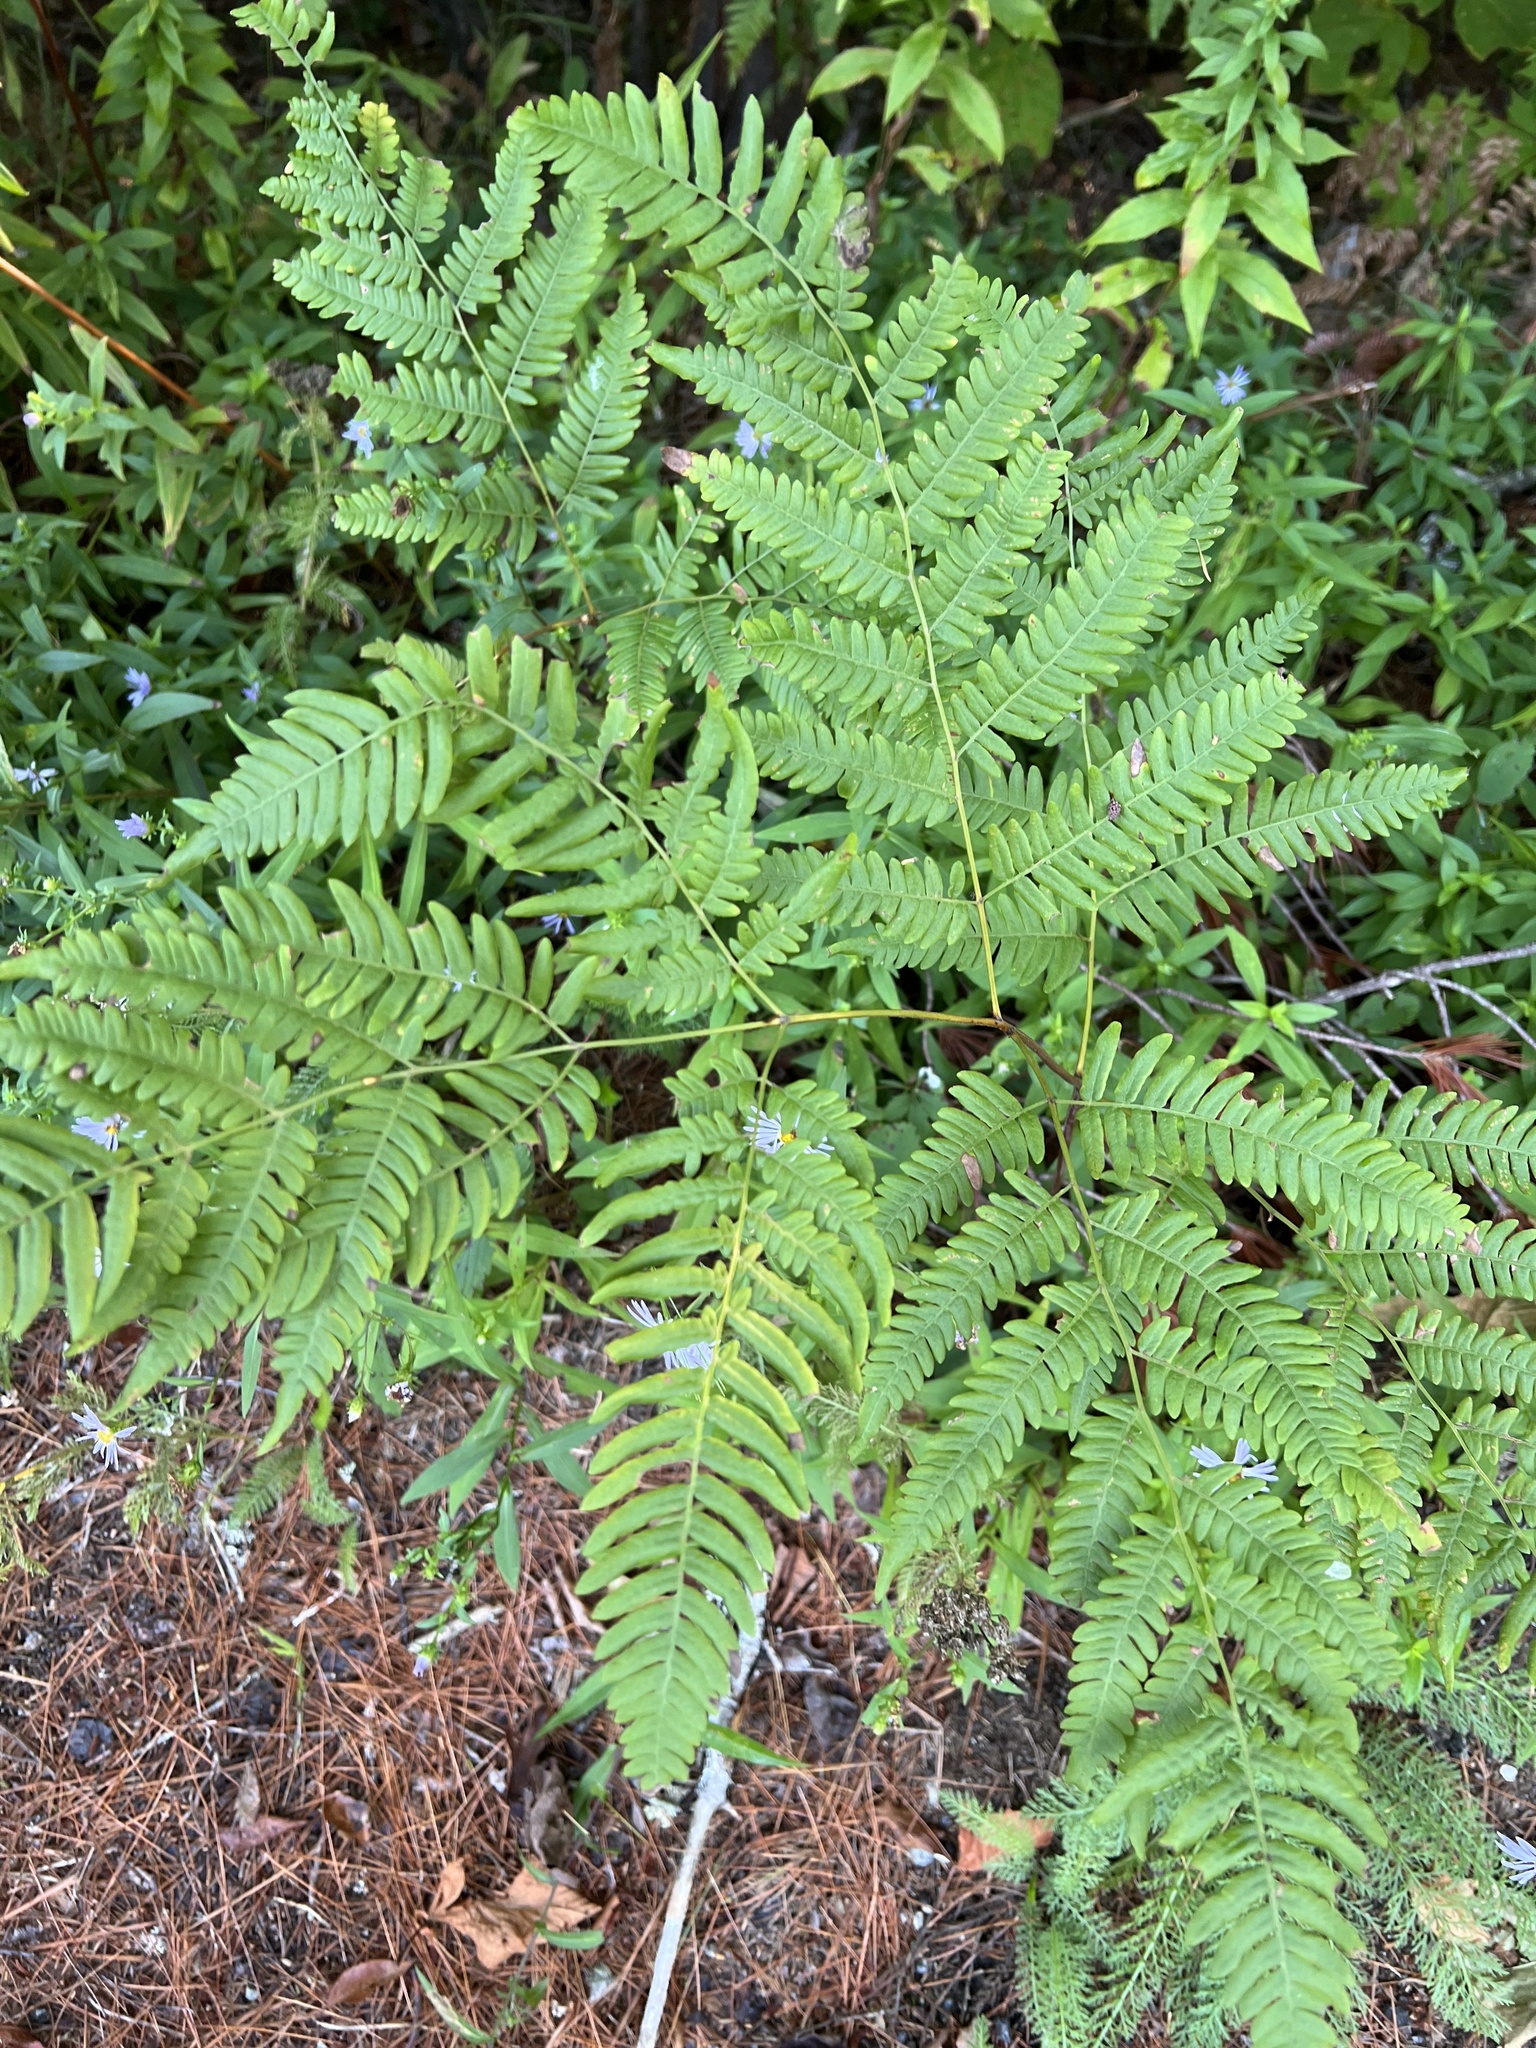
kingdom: Plantae
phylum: Tracheophyta
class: Polypodiopsida
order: Polypodiales
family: Dennstaedtiaceae
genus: Pteridium
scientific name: Pteridium aquilinum
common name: Bracken
